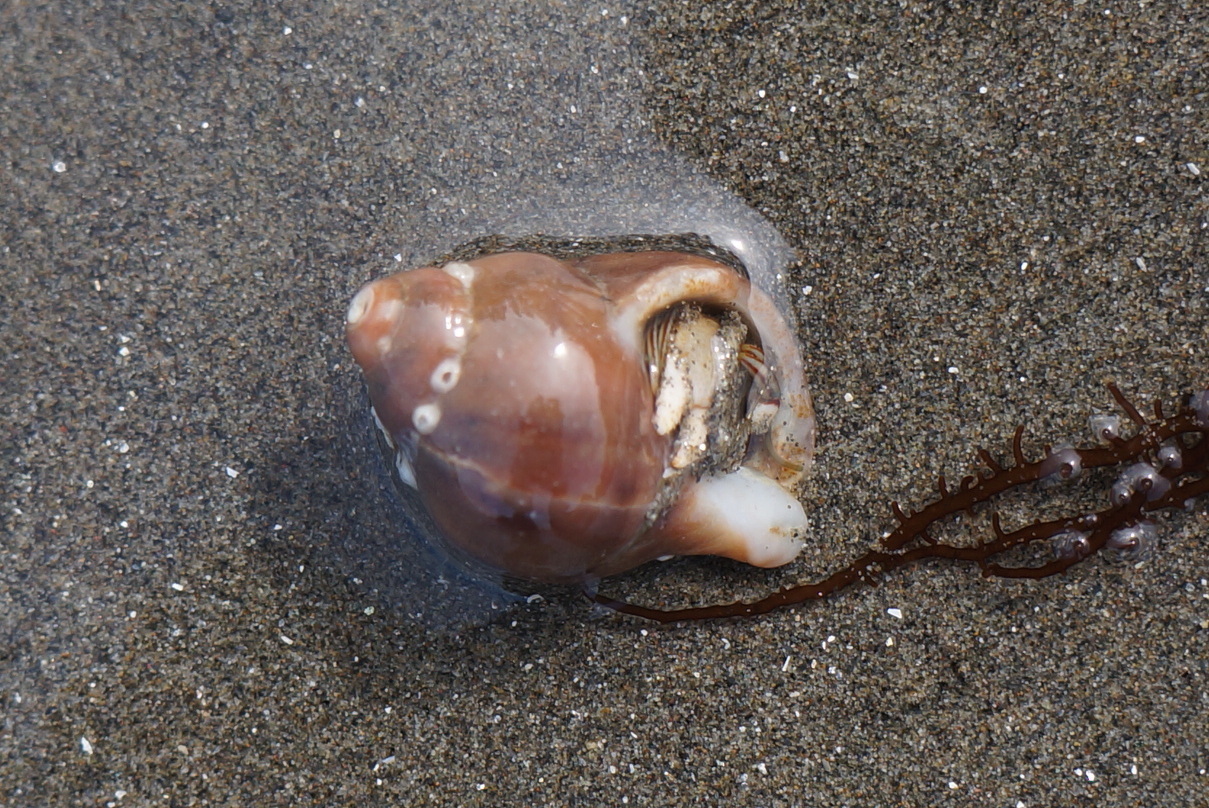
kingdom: Animalia
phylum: Mollusca
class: Gastropoda
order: Neogastropoda
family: Muricidae
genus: Nucella
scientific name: Nucella lamellosa
